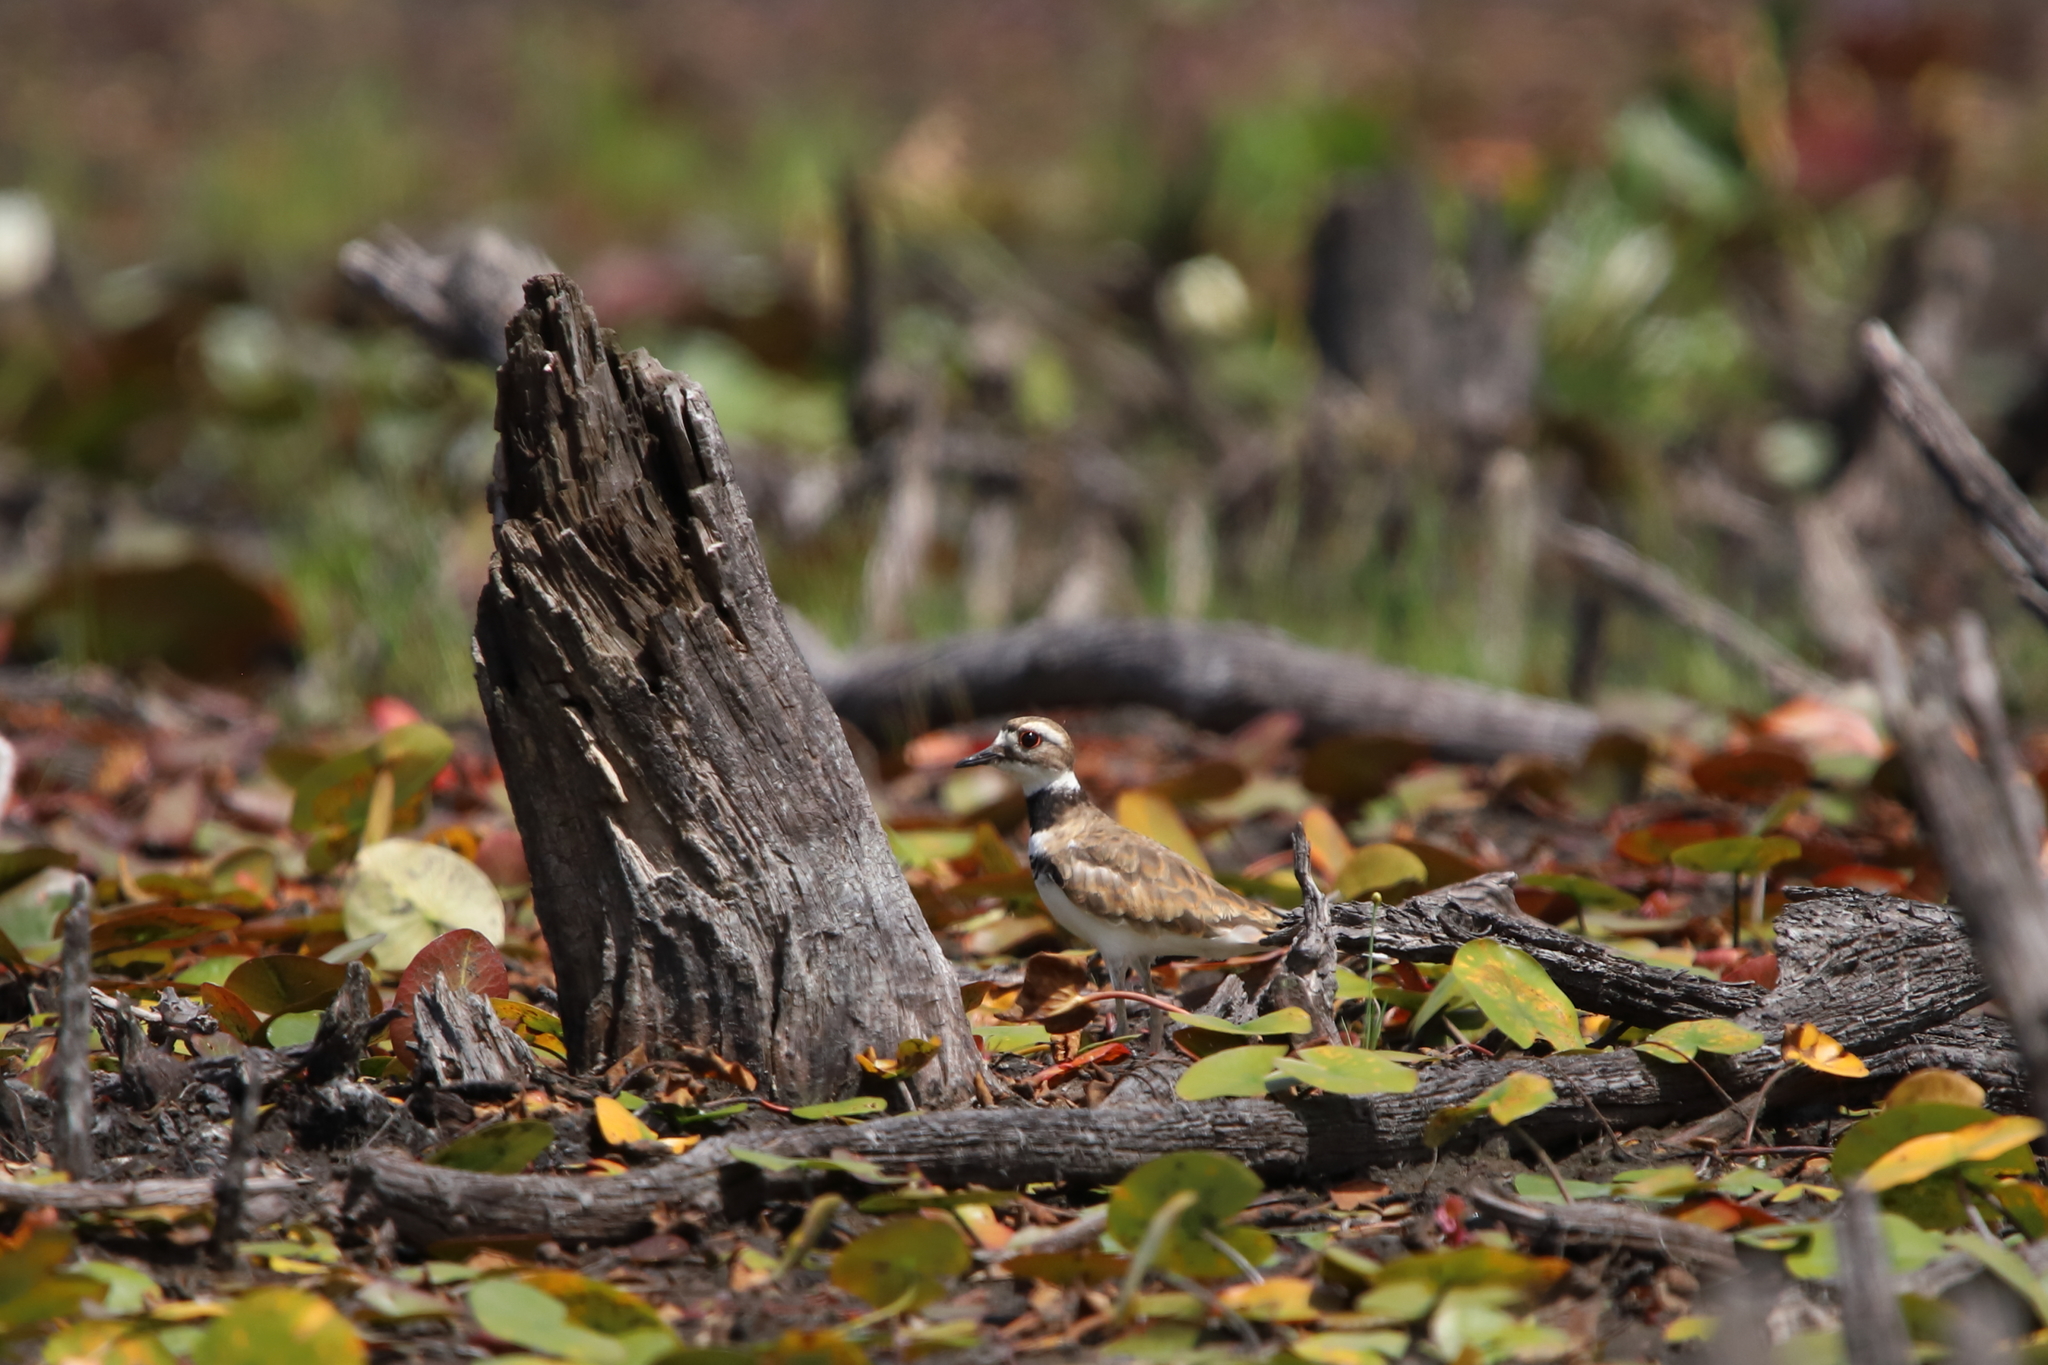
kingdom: Animalia
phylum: Chordata
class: Aves
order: Charadriiformes
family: Charadriidae
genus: Charadrius
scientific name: Charadrius vociferus
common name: Killdeer
